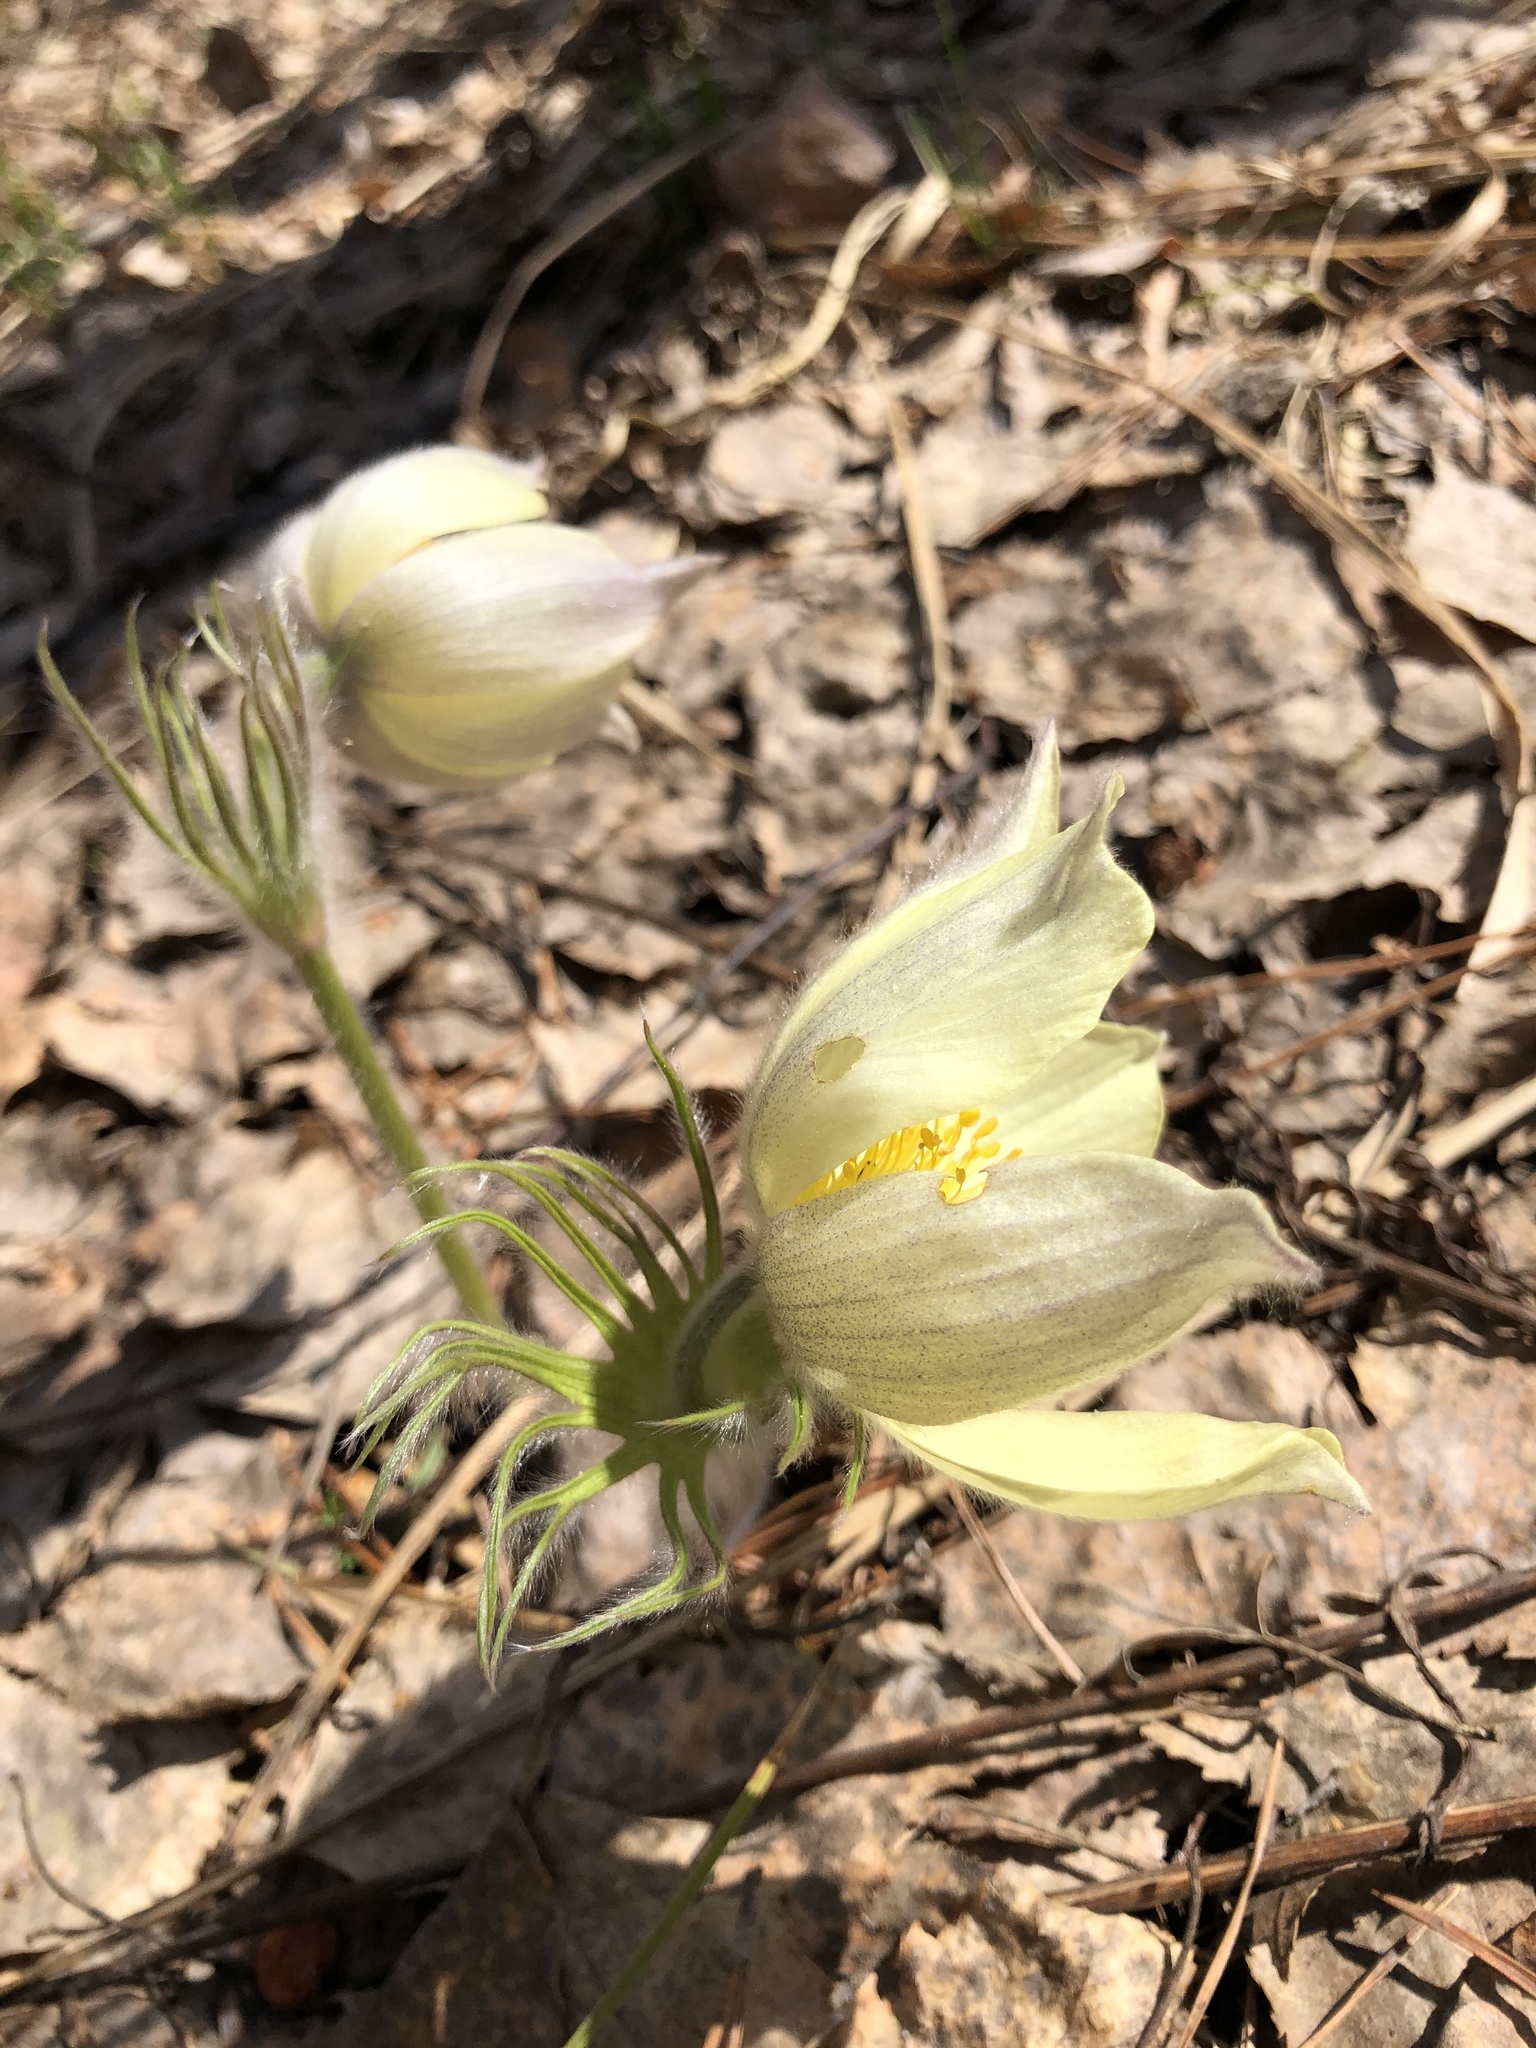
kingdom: Plantae
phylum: Tracheophyta
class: Magnoliopsida
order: Ranunculales
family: Ranunculaceae
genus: Pulsatilla
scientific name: Pulsatilla patens
